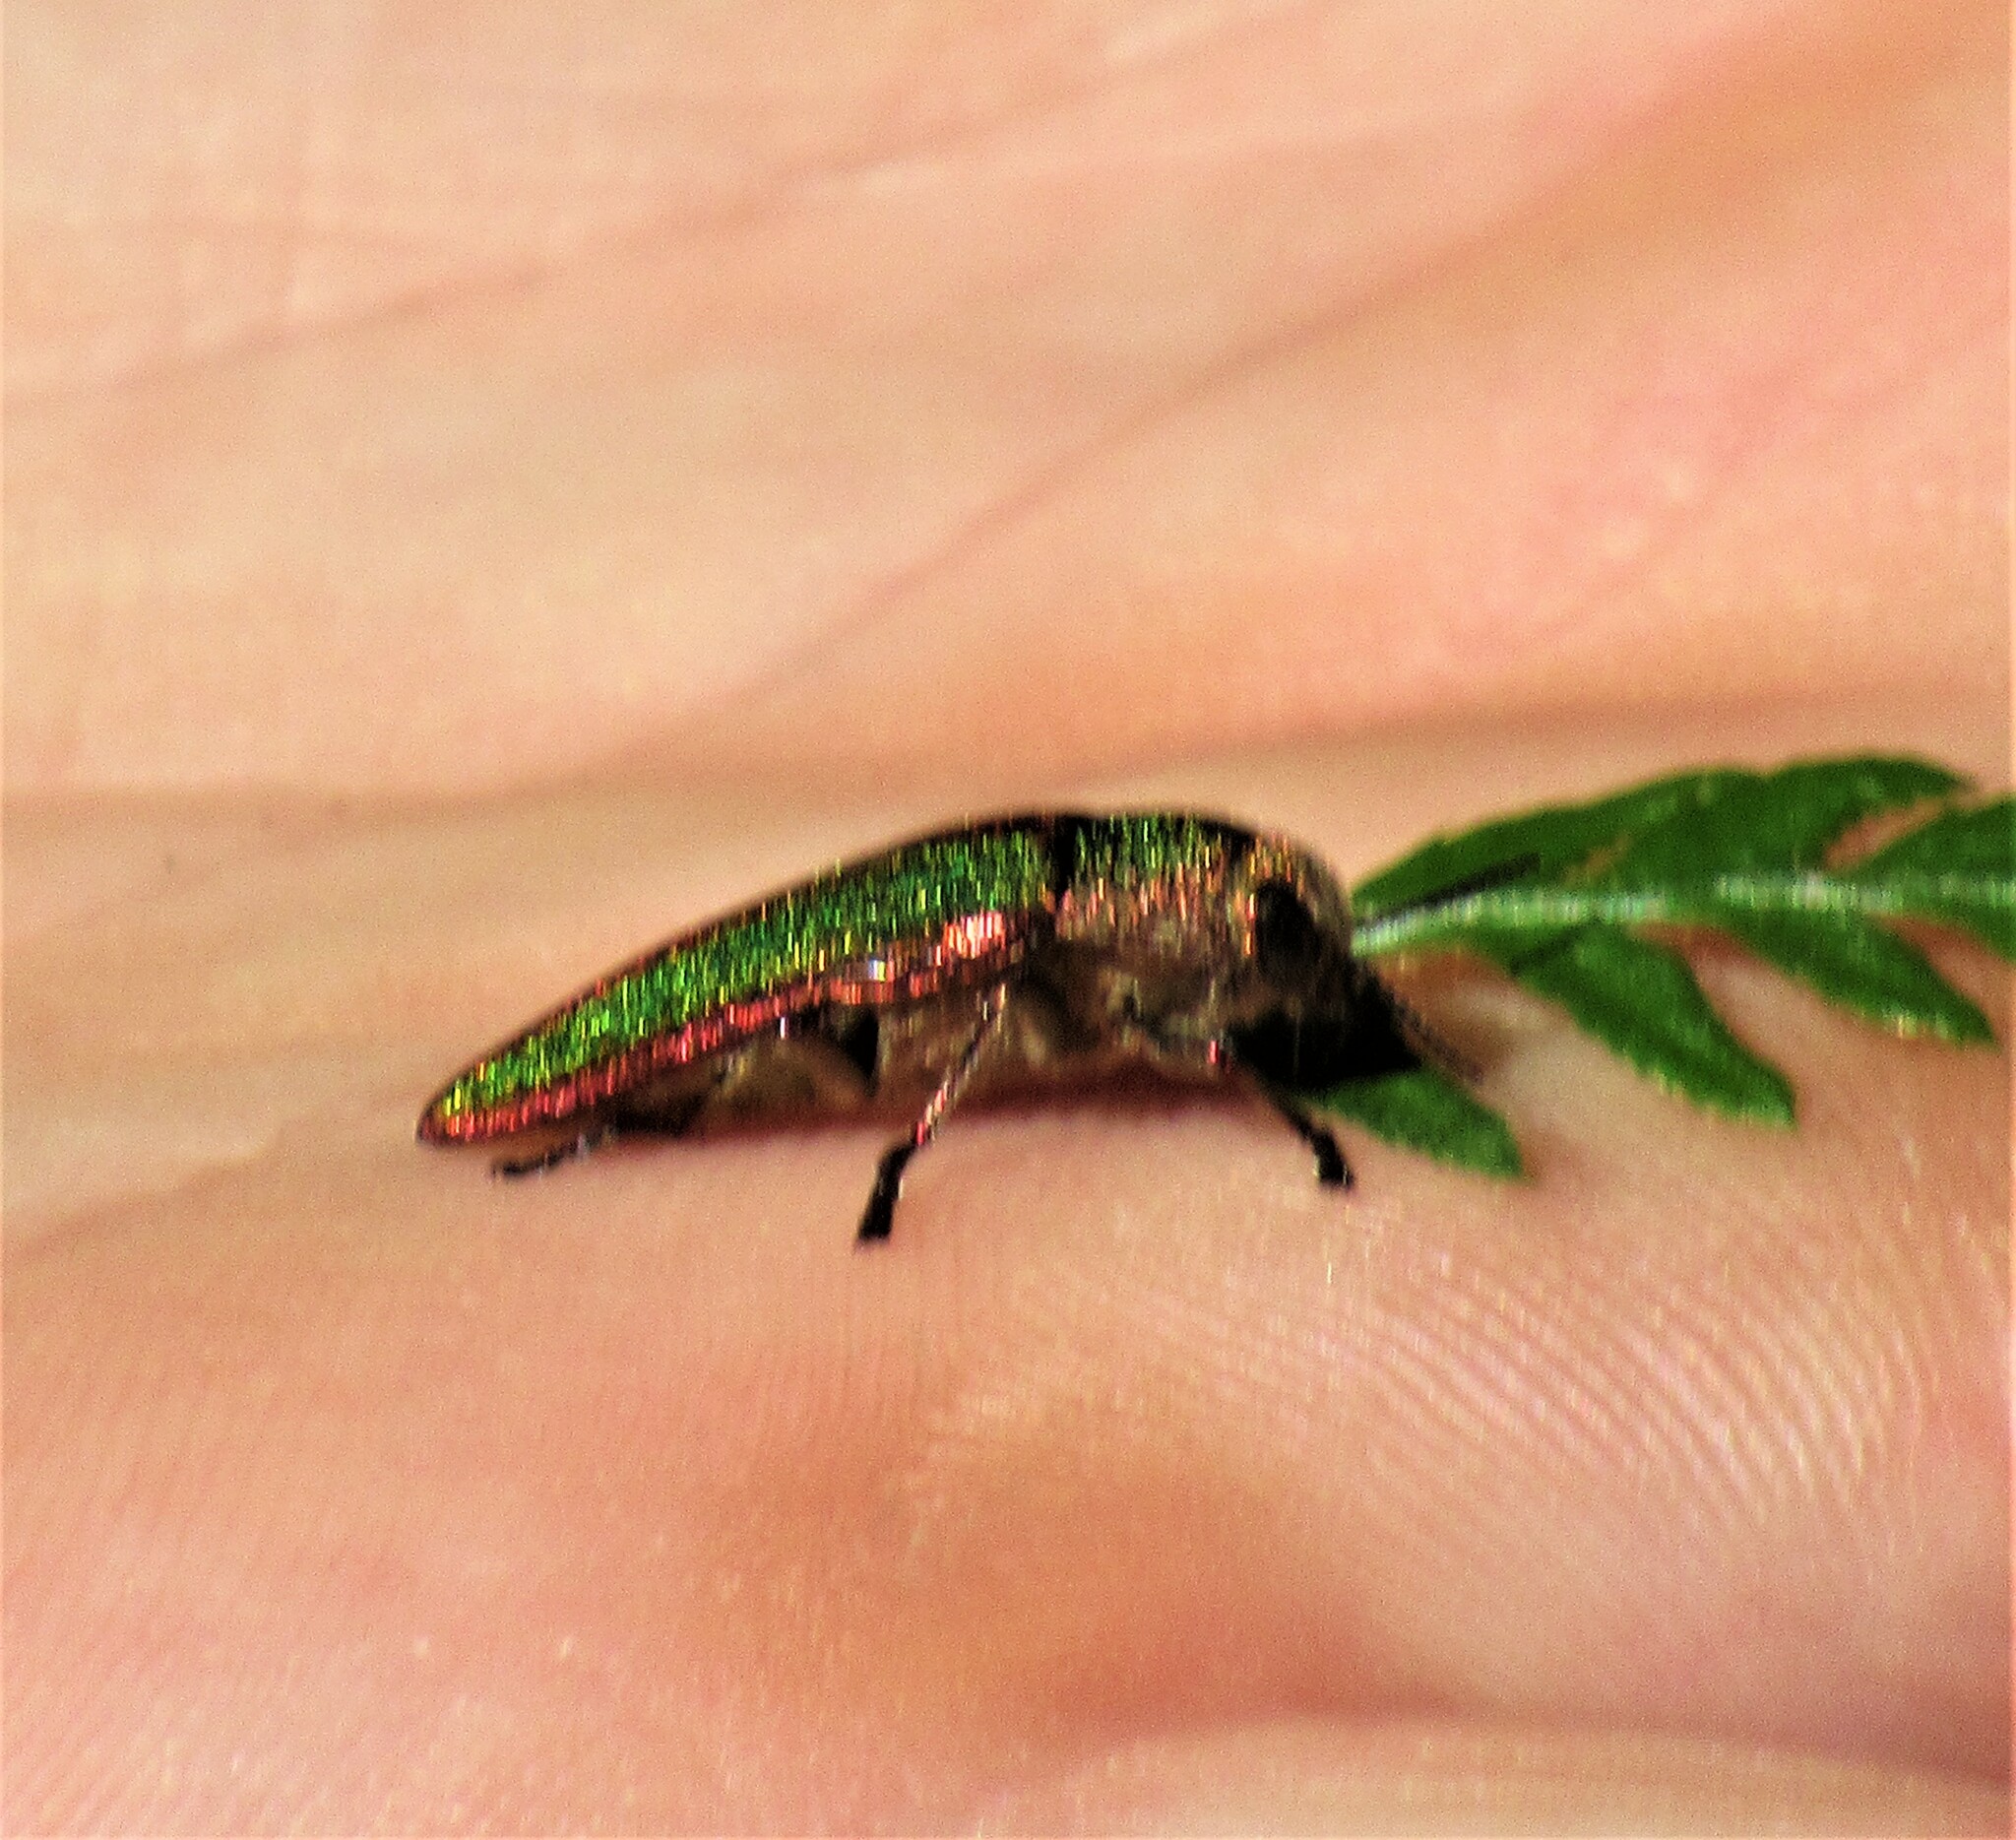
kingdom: Animalia
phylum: Arthropoda
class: Insecta
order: Coleoptera
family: Buprestidae
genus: Buprestis
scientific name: Buprestis aurulenta
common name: Golden buprestid
